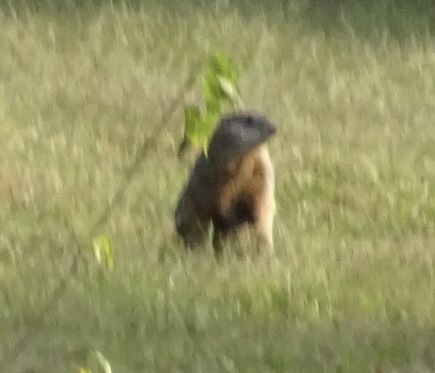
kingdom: Animalia
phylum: Chordata
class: Mammalia
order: Rodentia
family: Sciuridae
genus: Marmota
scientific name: Marmota monax
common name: Groundhog
